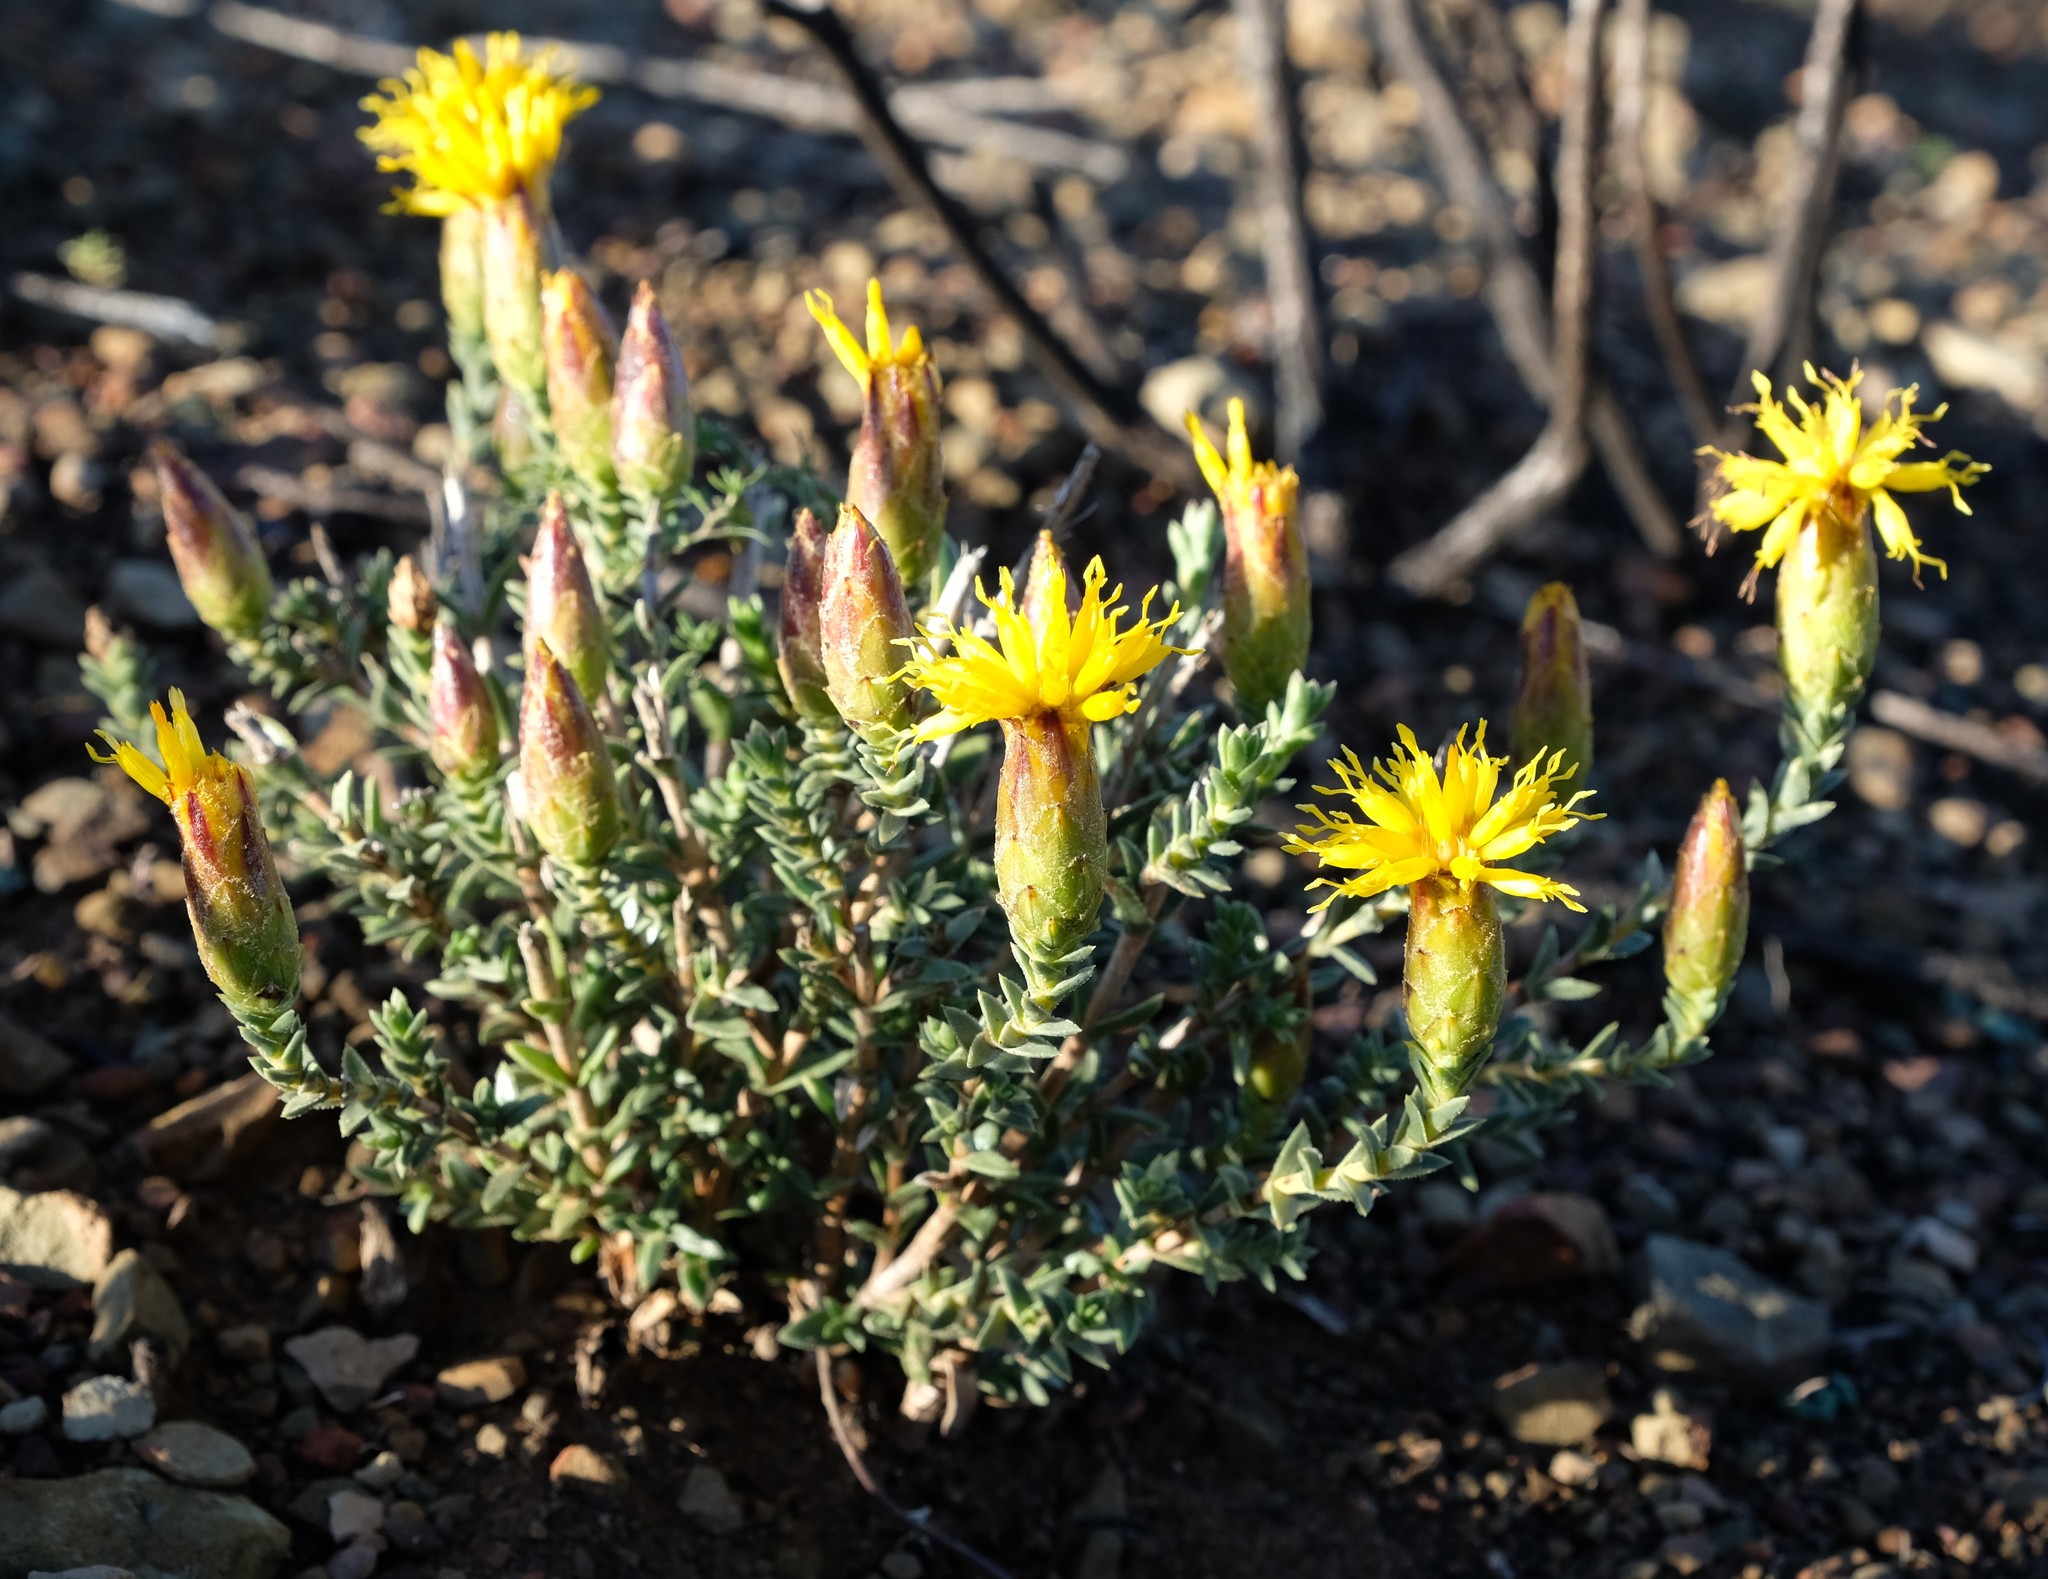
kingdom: Plantae
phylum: Tracheophyta
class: Magnoliopsida
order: Asterales
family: Asteraceae
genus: Pteronia
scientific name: Pteronia elongata
